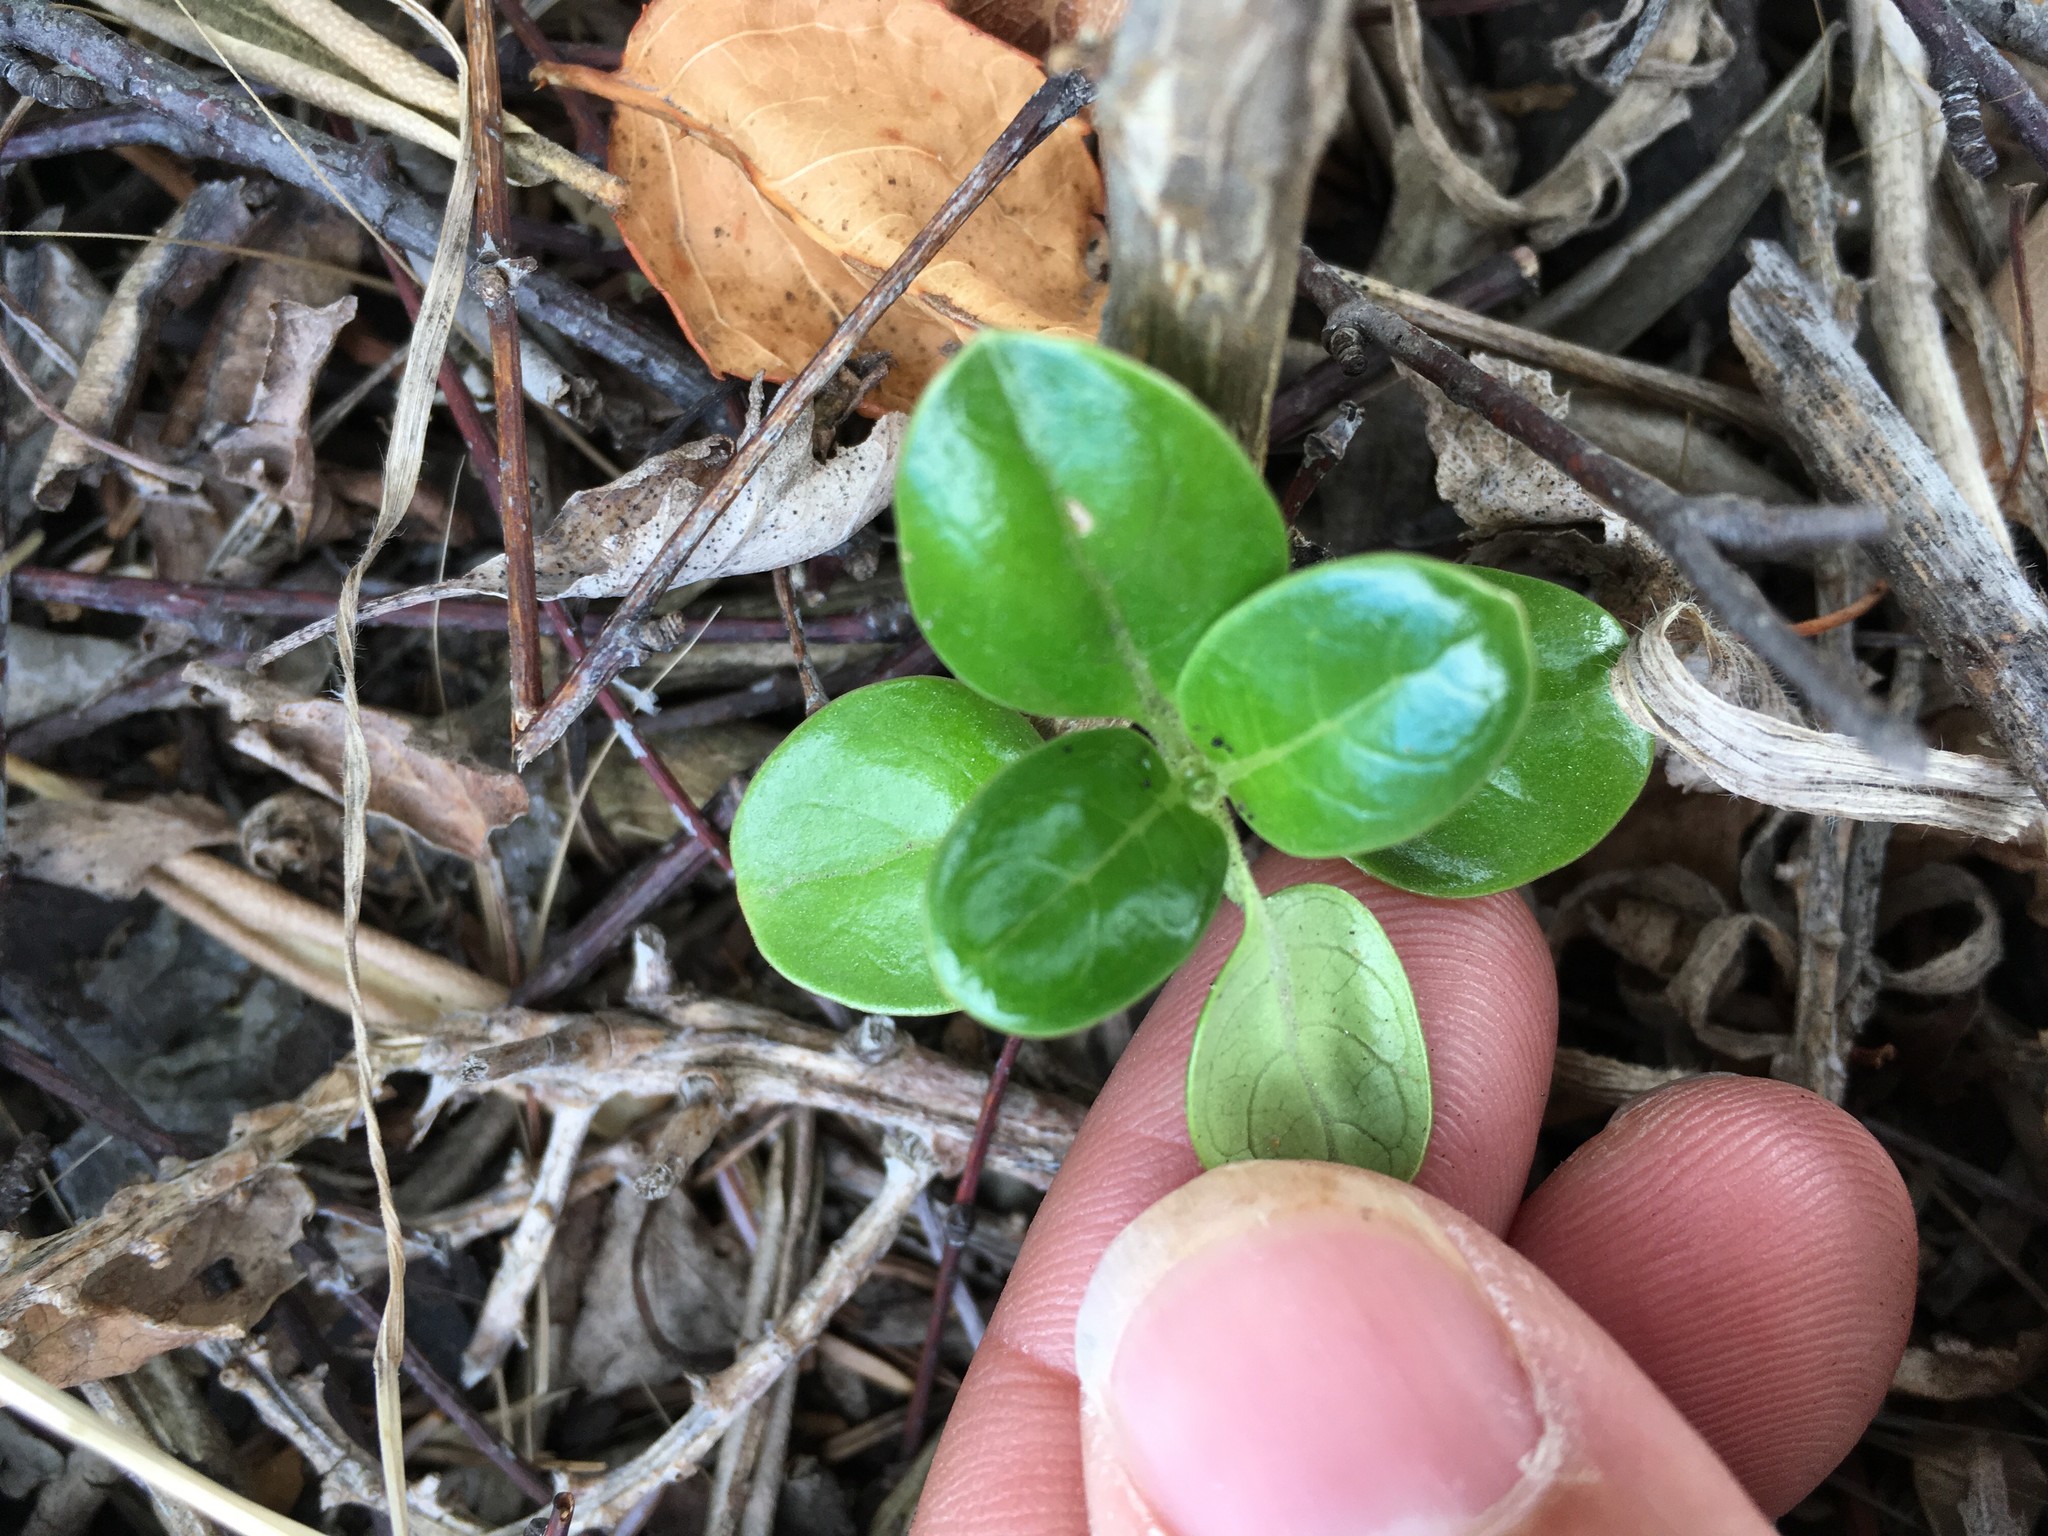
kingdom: Plantae
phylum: Tracheophyta
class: Magnoliopsida
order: Gentianales
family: Rubiaceae
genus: Coprosma
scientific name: Coprosma repens
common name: Tree bedstraw
